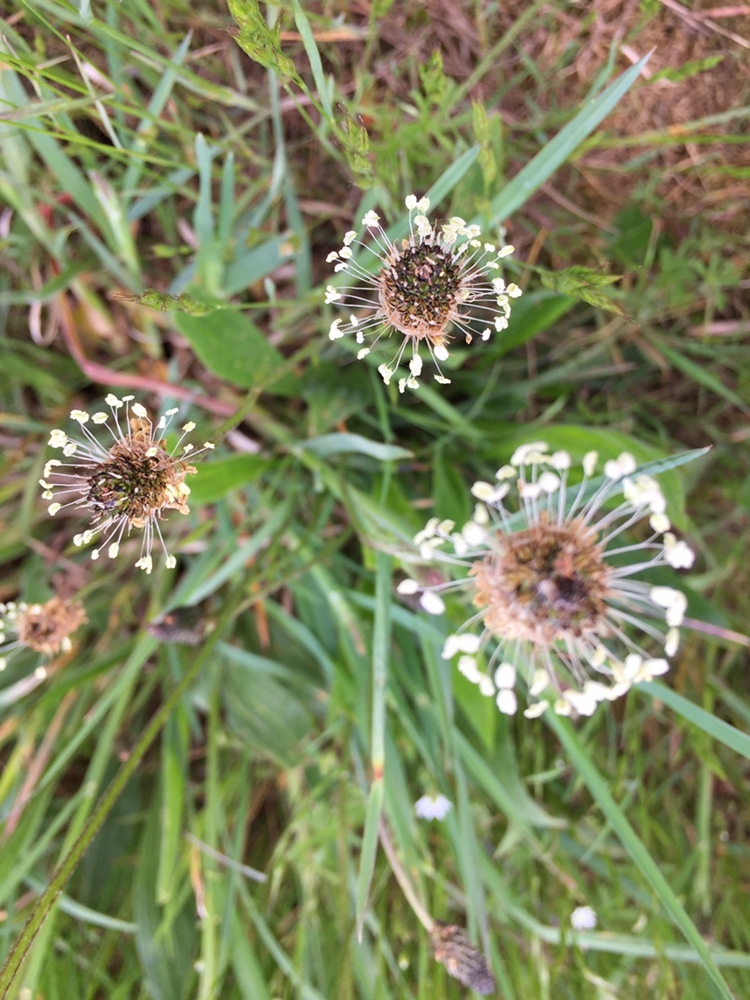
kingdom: Plantae
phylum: Tracheophyta
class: Magnoliopsida
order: Lamiales
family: Plantaginaceae
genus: Plantago
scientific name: Plantago lanceolata
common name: Ribwort plantain
